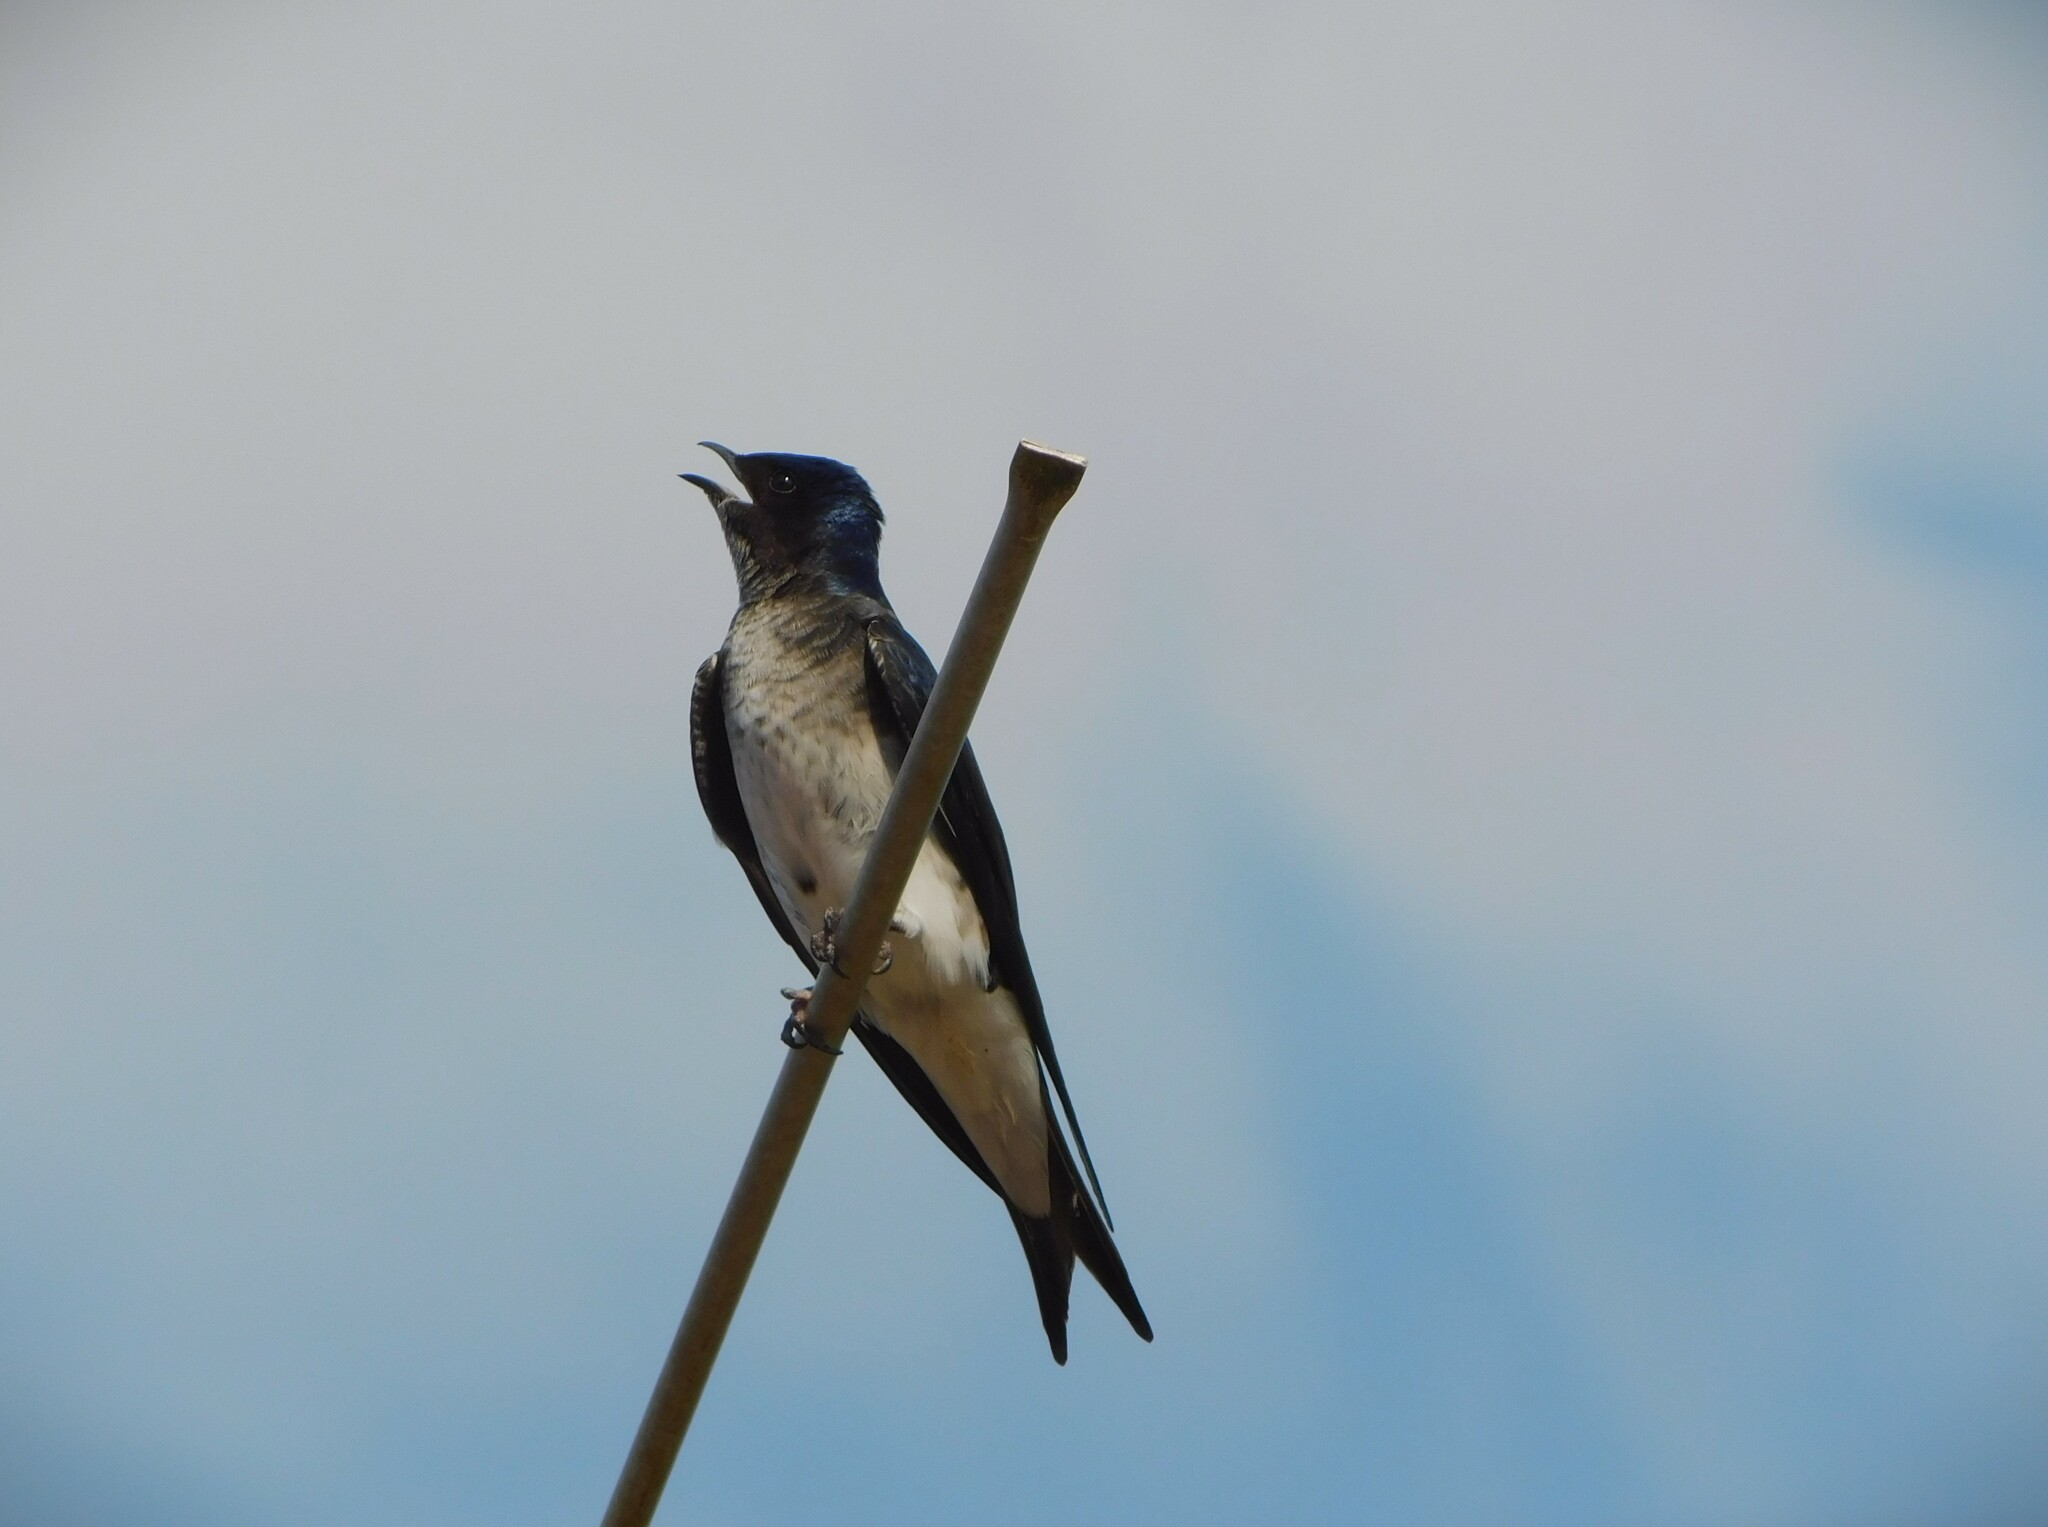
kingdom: Animalia
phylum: Chordata
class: Aves
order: Passeriformes
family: Hirundinidae
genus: Progne
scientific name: Progne chalybea
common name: Grey-breasted martin
